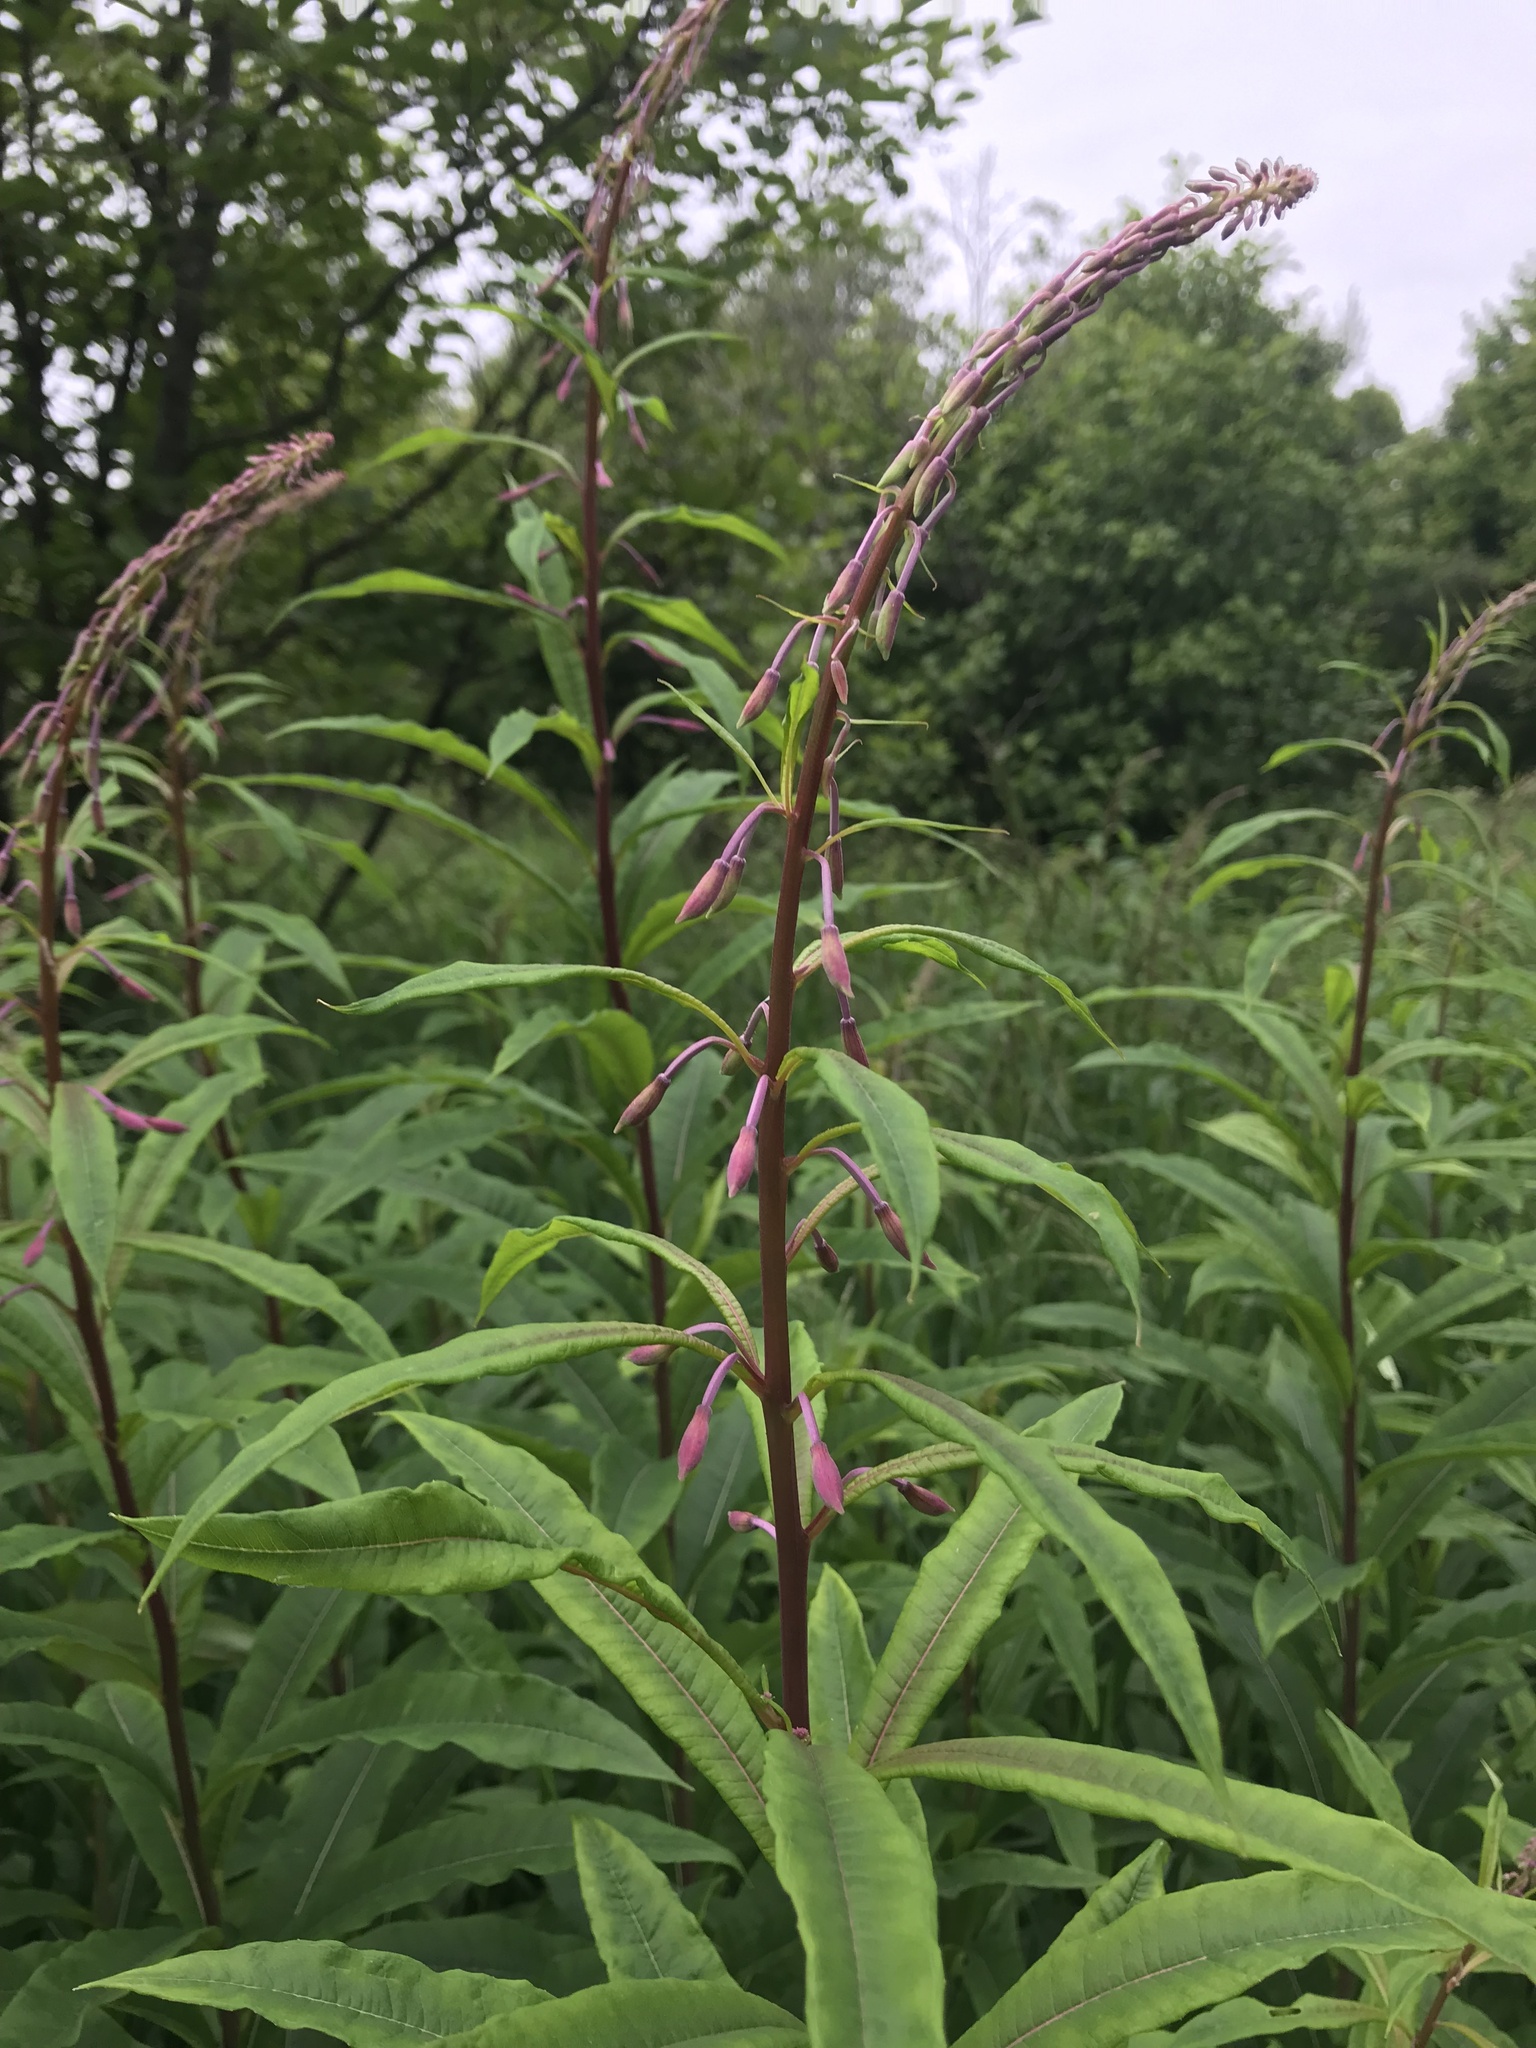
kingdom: Plantae
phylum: Tracheophyta
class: Magnoliopsida
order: Myrtales
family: Onagraceae
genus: Chamaenerion
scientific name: Chamaenerion angustifolium
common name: Fireweed
